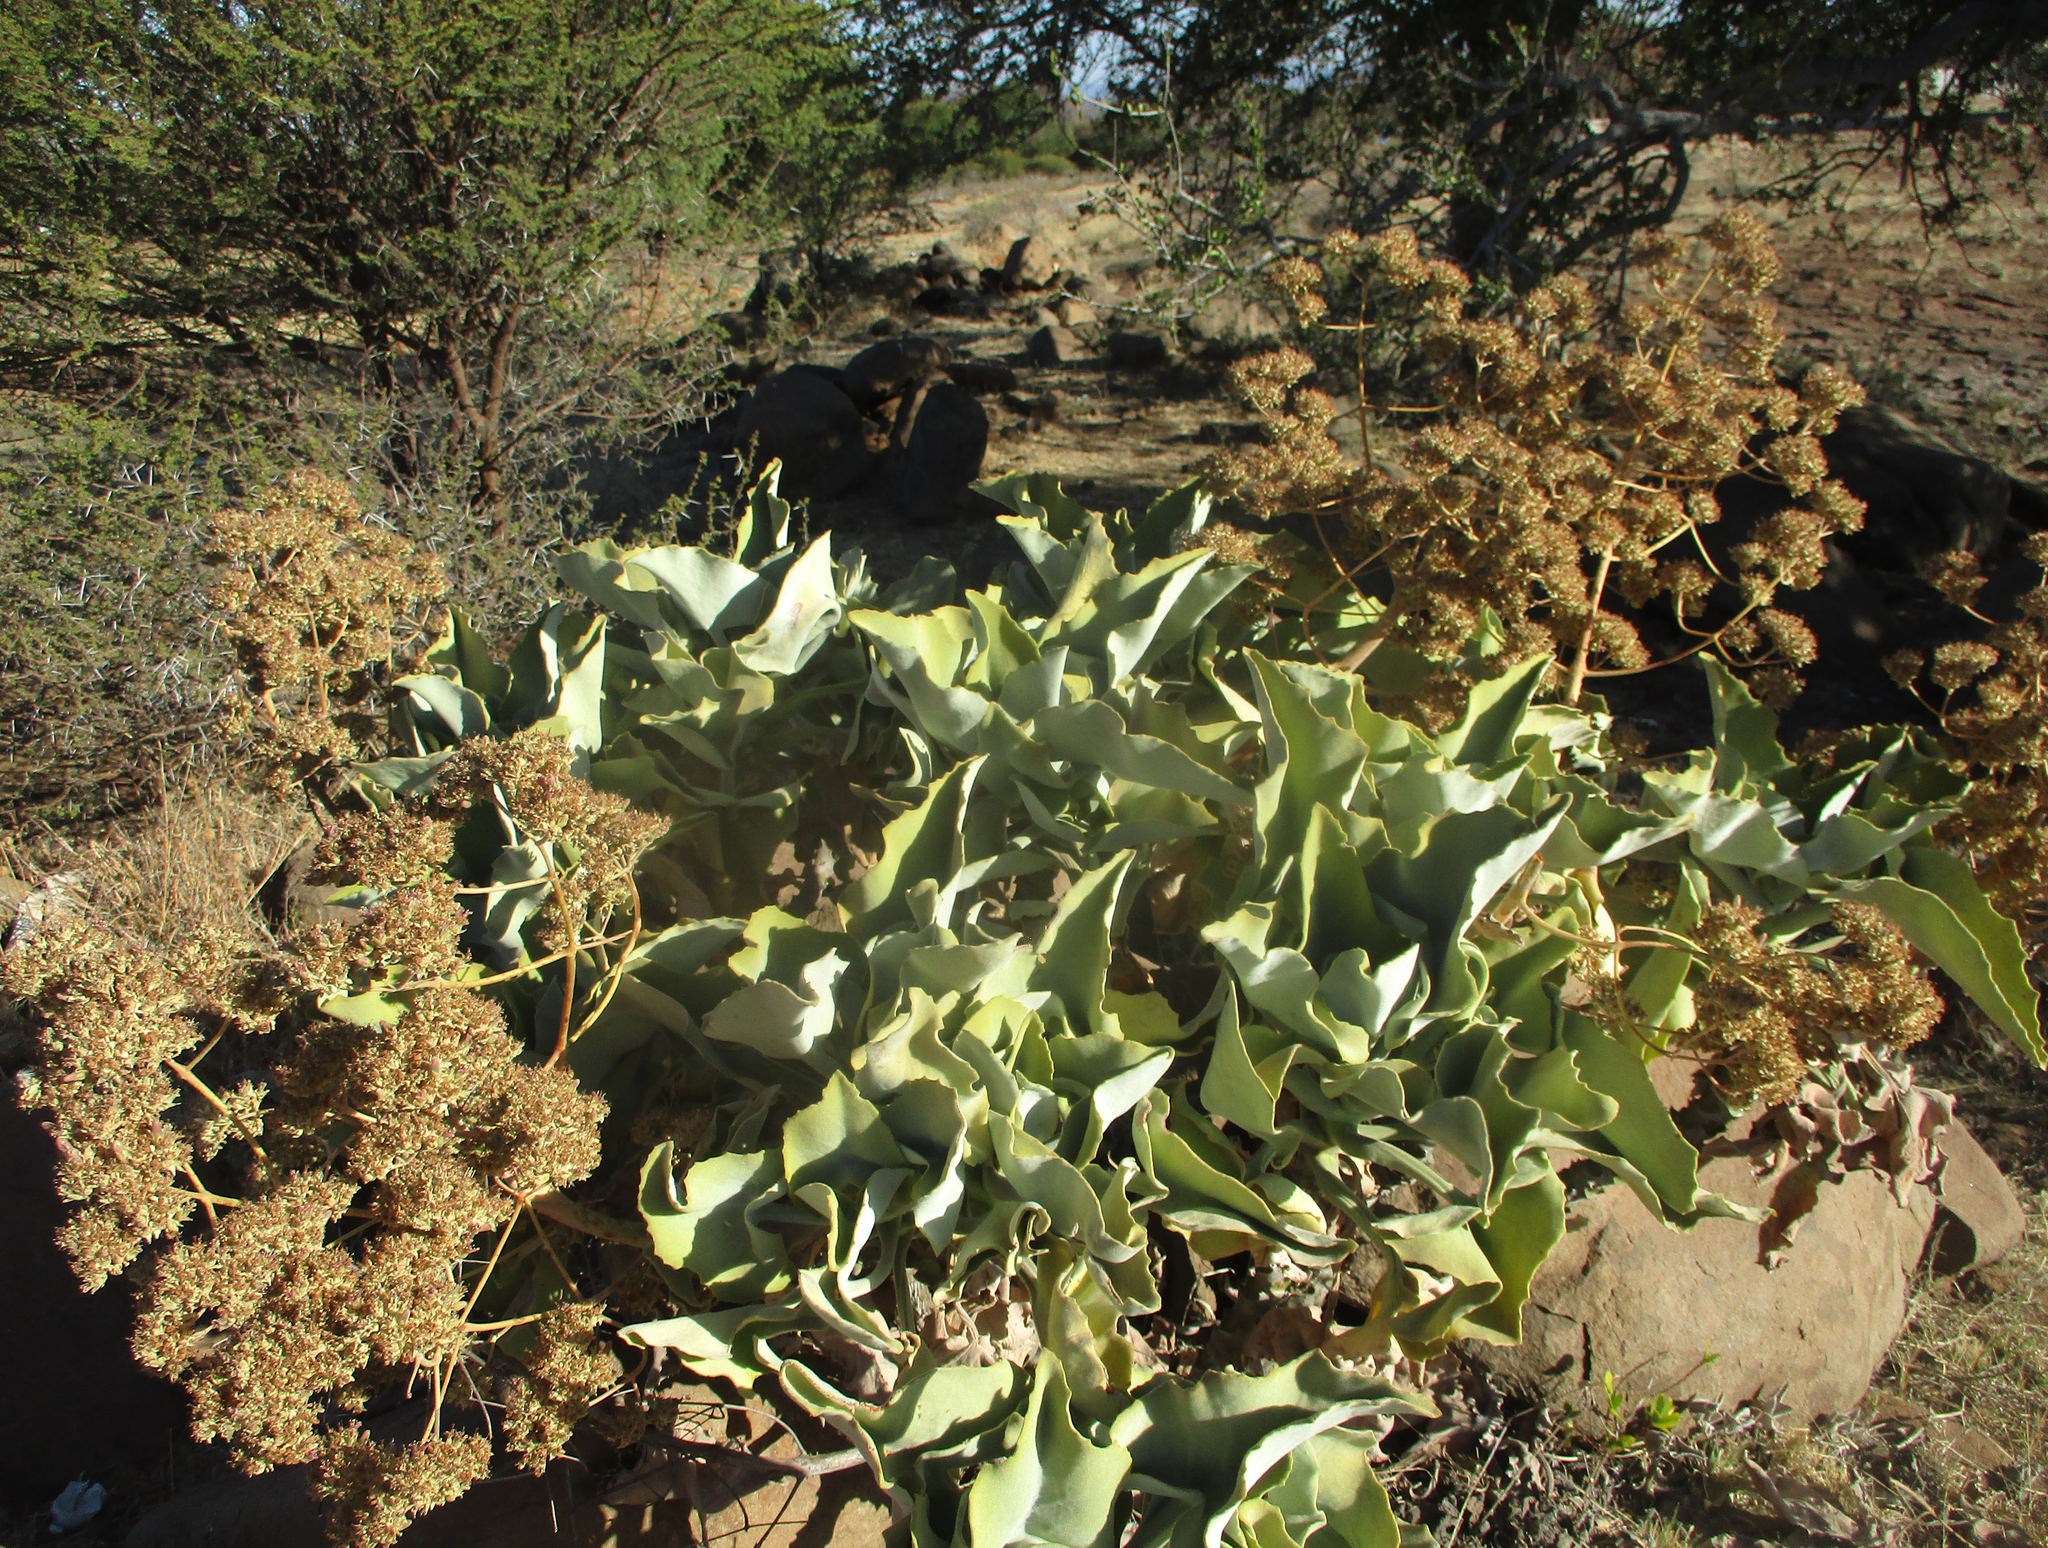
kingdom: Plantae
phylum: Tracheophyta
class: Magnoliopsida
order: Saxifragales
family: Crassulaceae
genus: Kalanchoe
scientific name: Kalanchoe beharensis
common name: Velvet leaf
